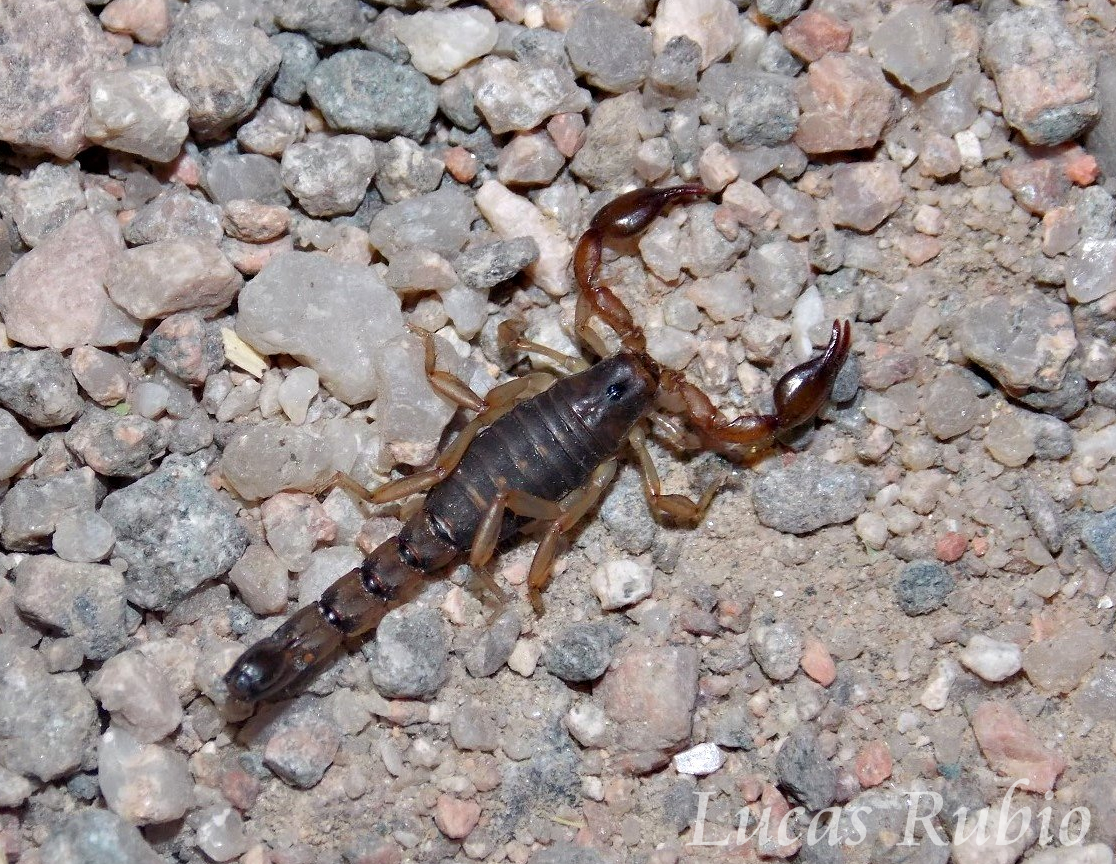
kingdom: Animalia
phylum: Arthropoda
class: Arachnida
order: Scorpiones
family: Bothriuridae
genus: Bothriurus
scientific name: Bothriurus cordubensis
